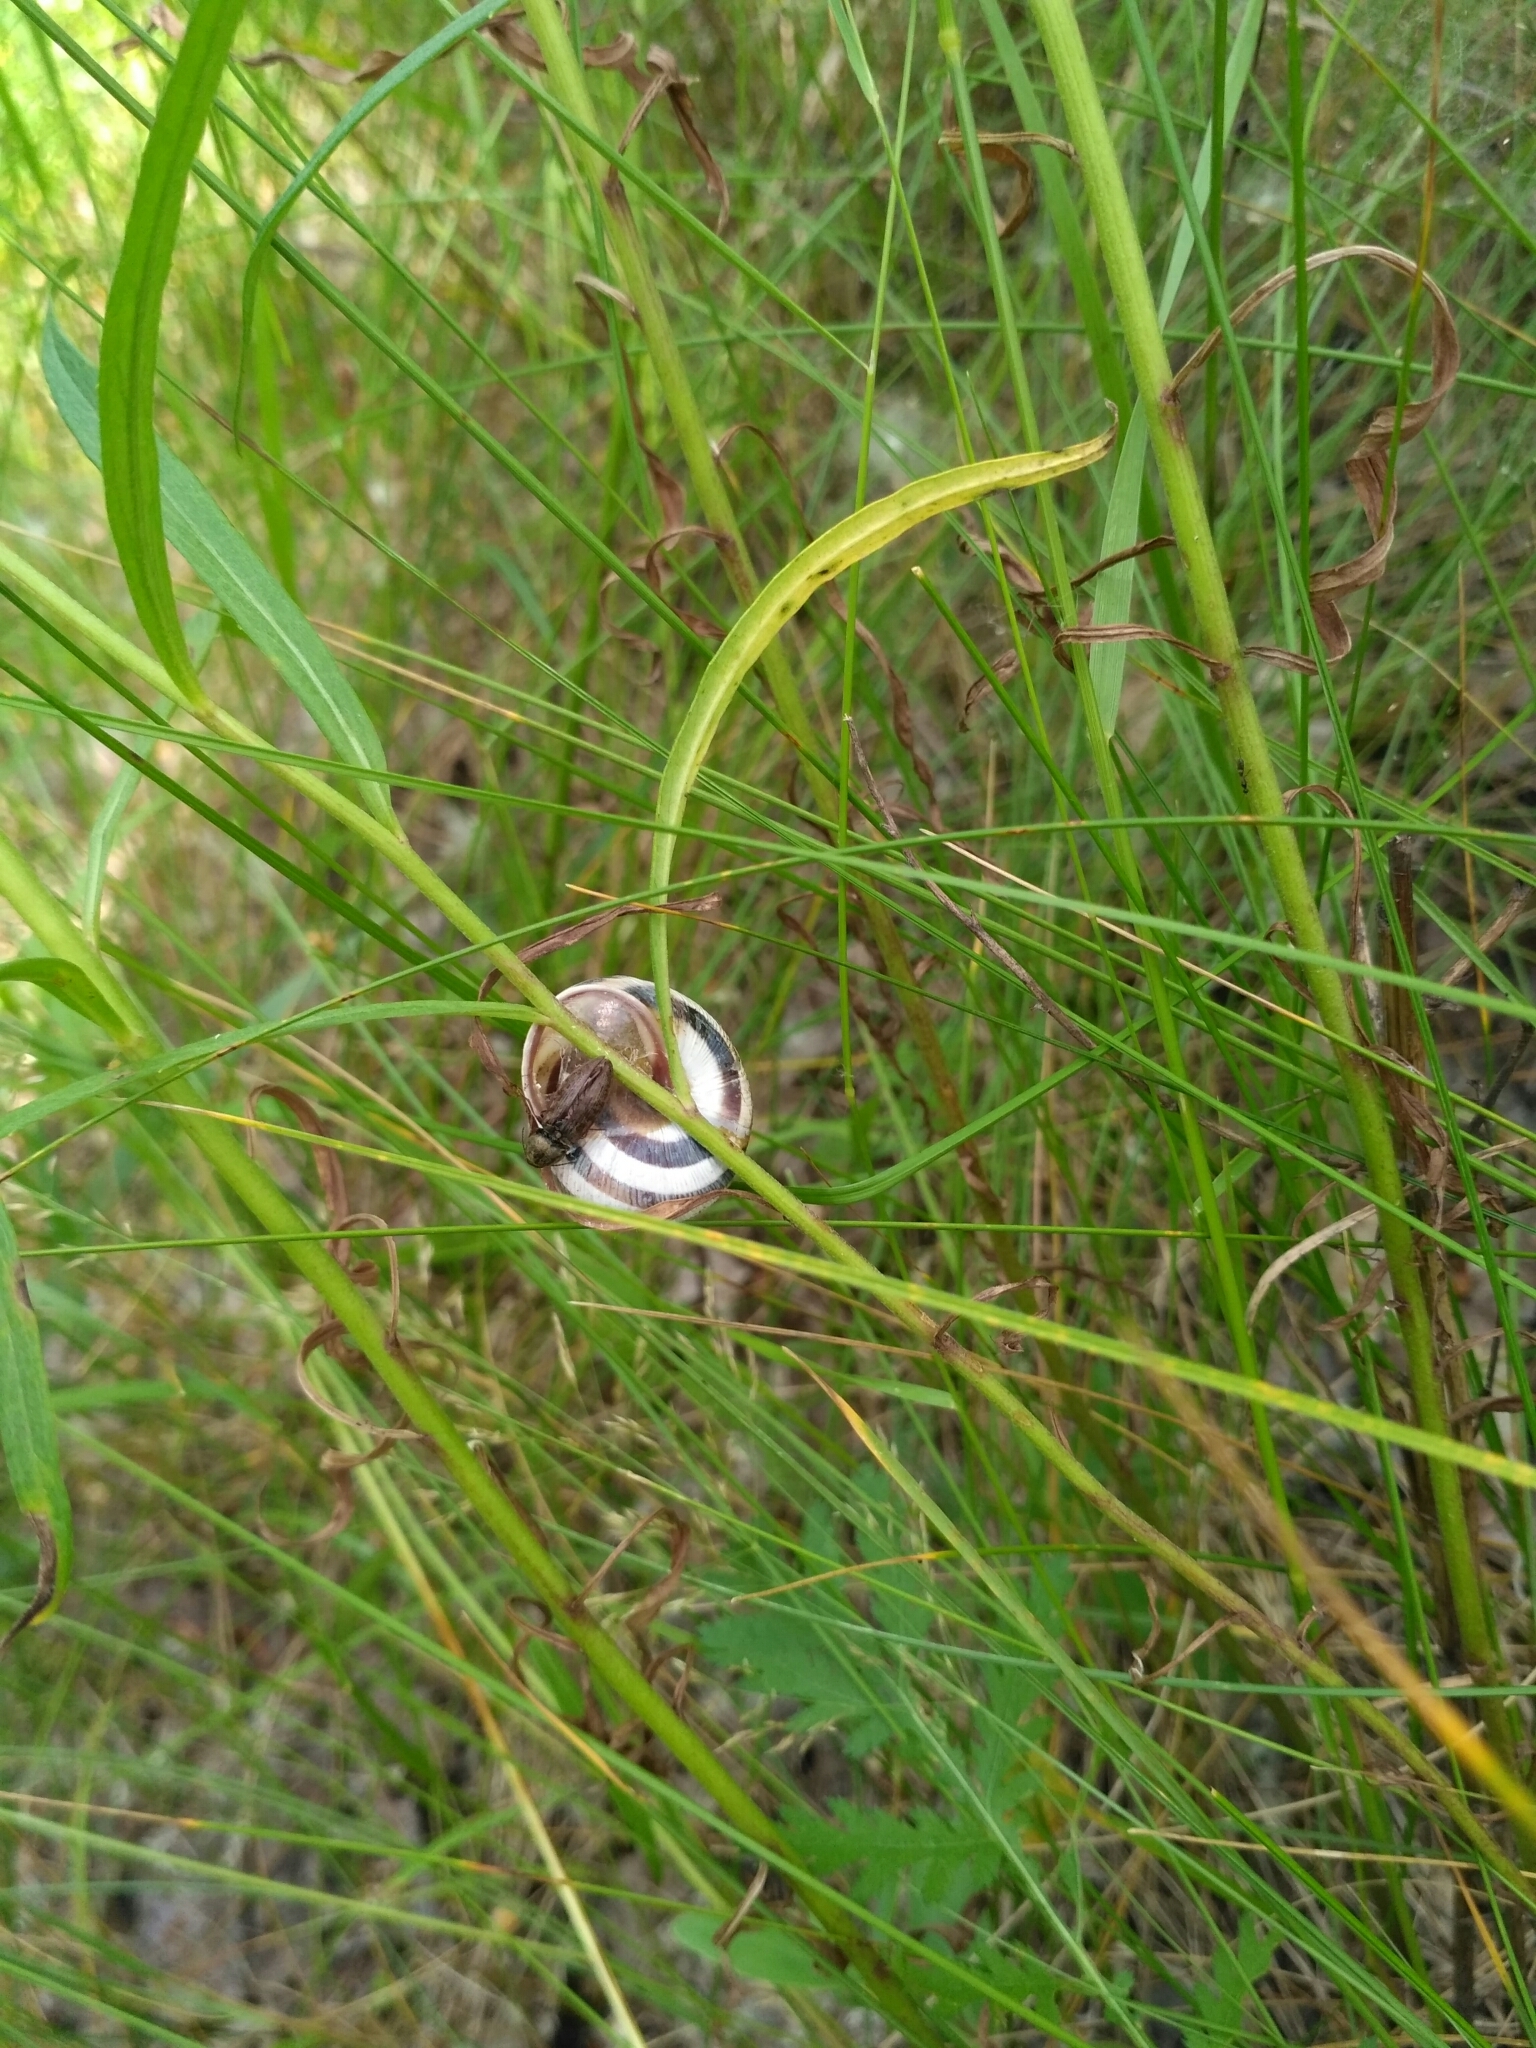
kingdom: Animalia
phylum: Mollusca
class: Gastropoda
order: Stylommatophora
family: Helicidae
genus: Caucasotachea
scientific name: Caucasotachea vindobonensis
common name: European helicid land snail
